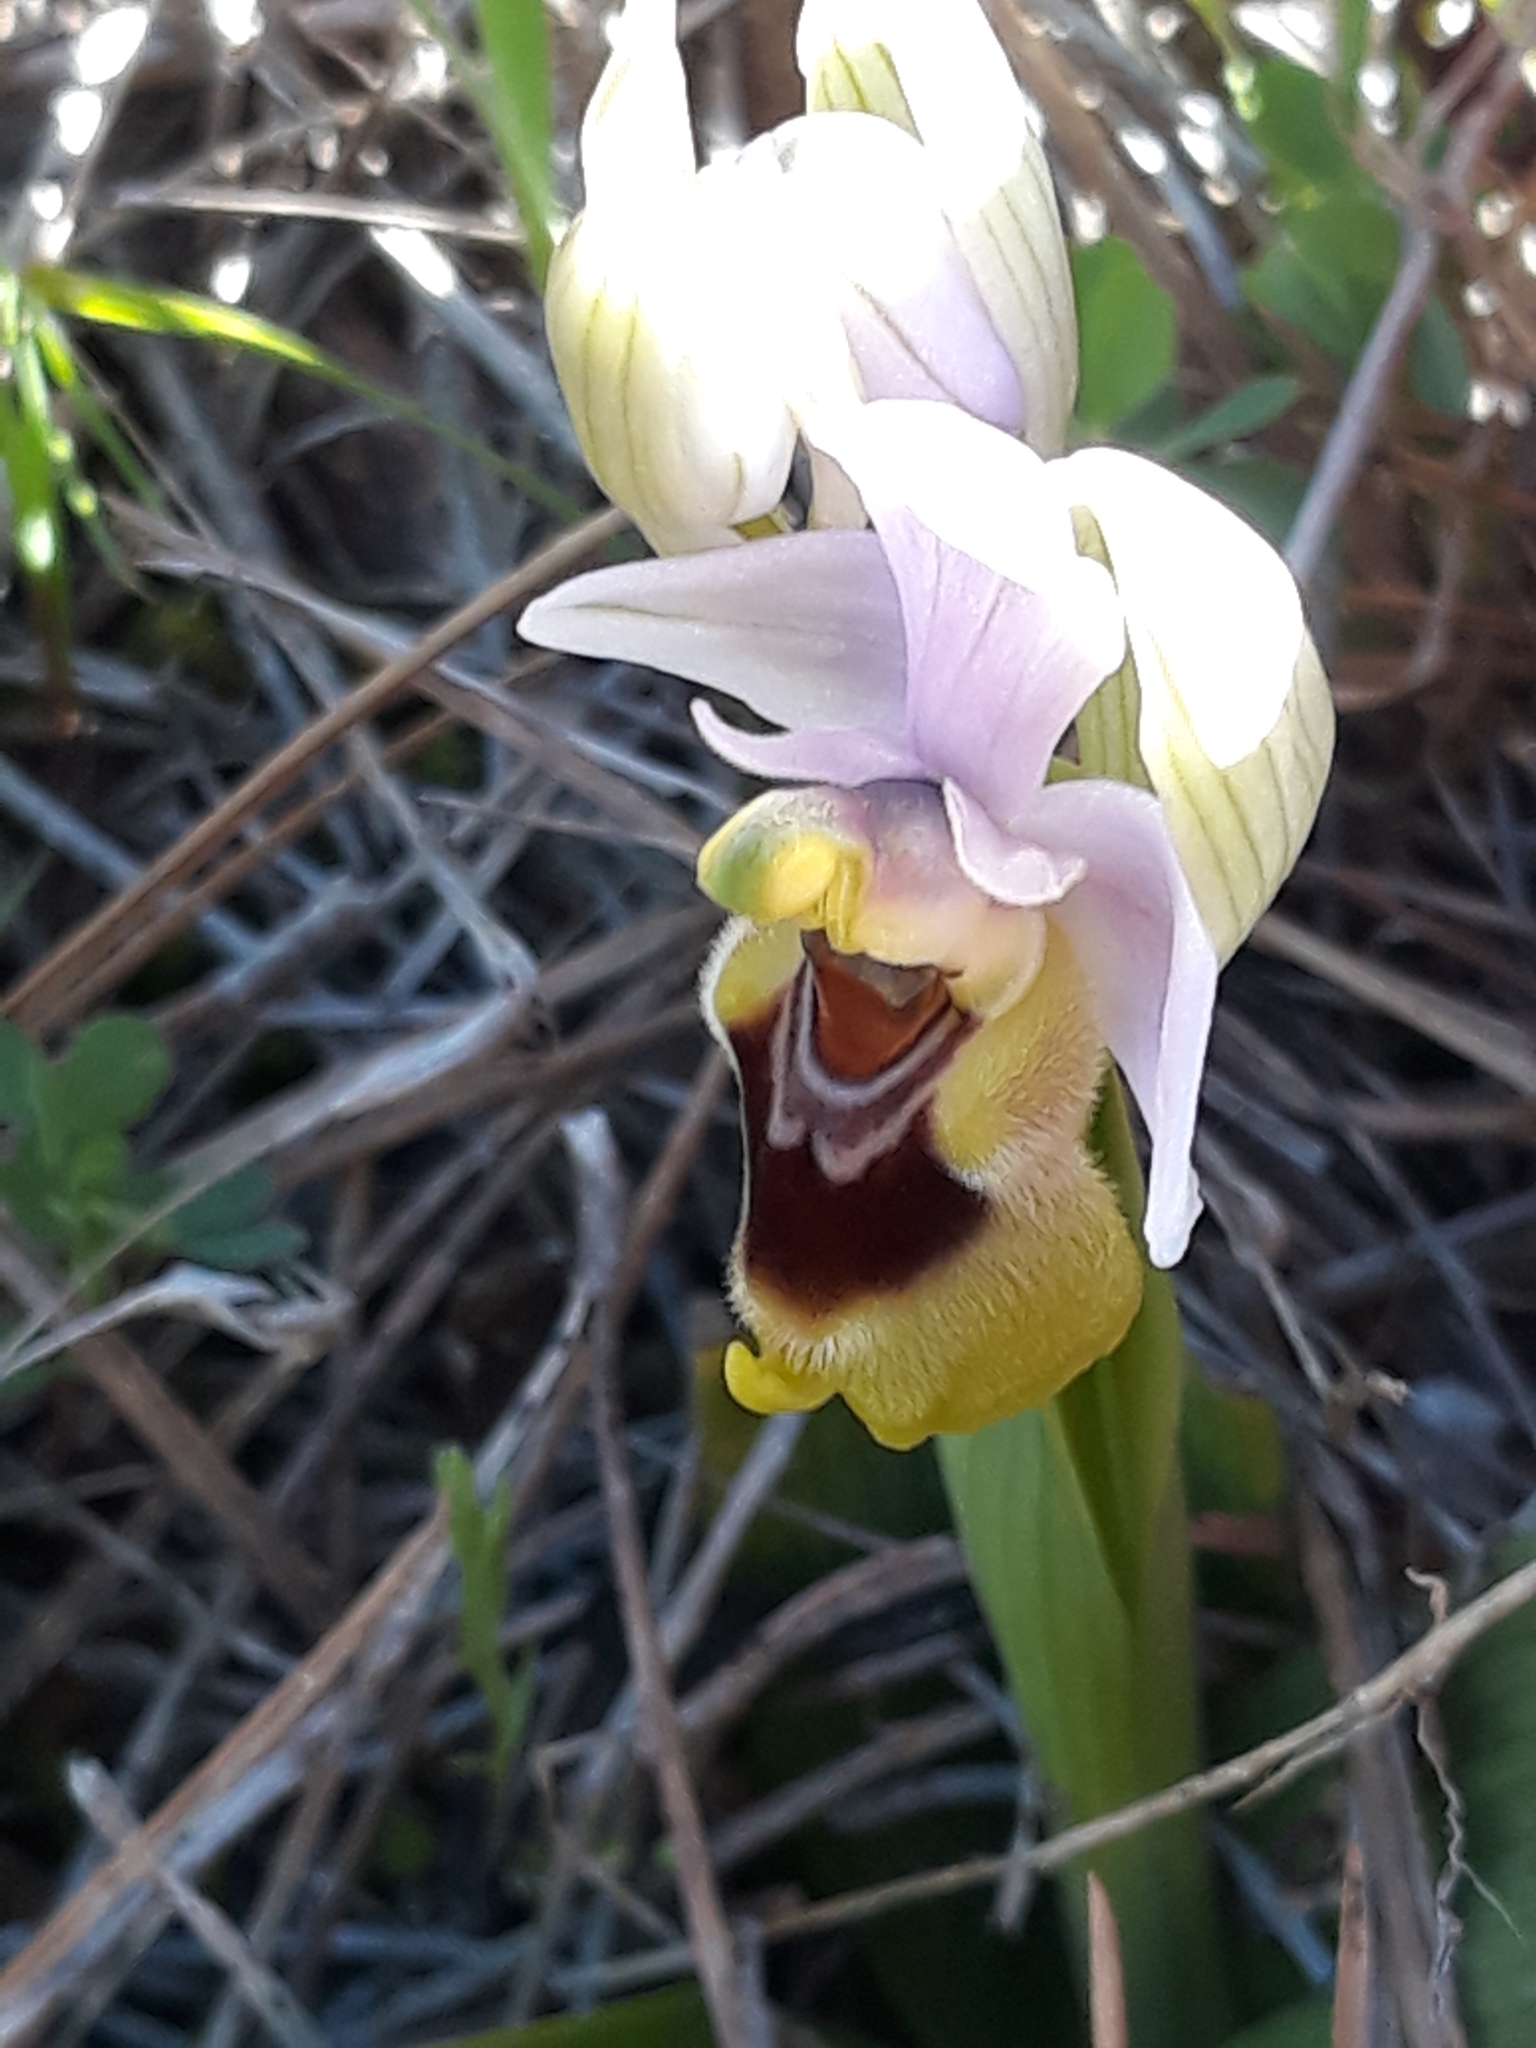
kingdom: Plantae
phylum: Tracheophyta
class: Liliopsida
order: Asparagales
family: Orchidaceae
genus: Ophrys
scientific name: Ophrys tenthredinifera
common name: Sawfly orchid
